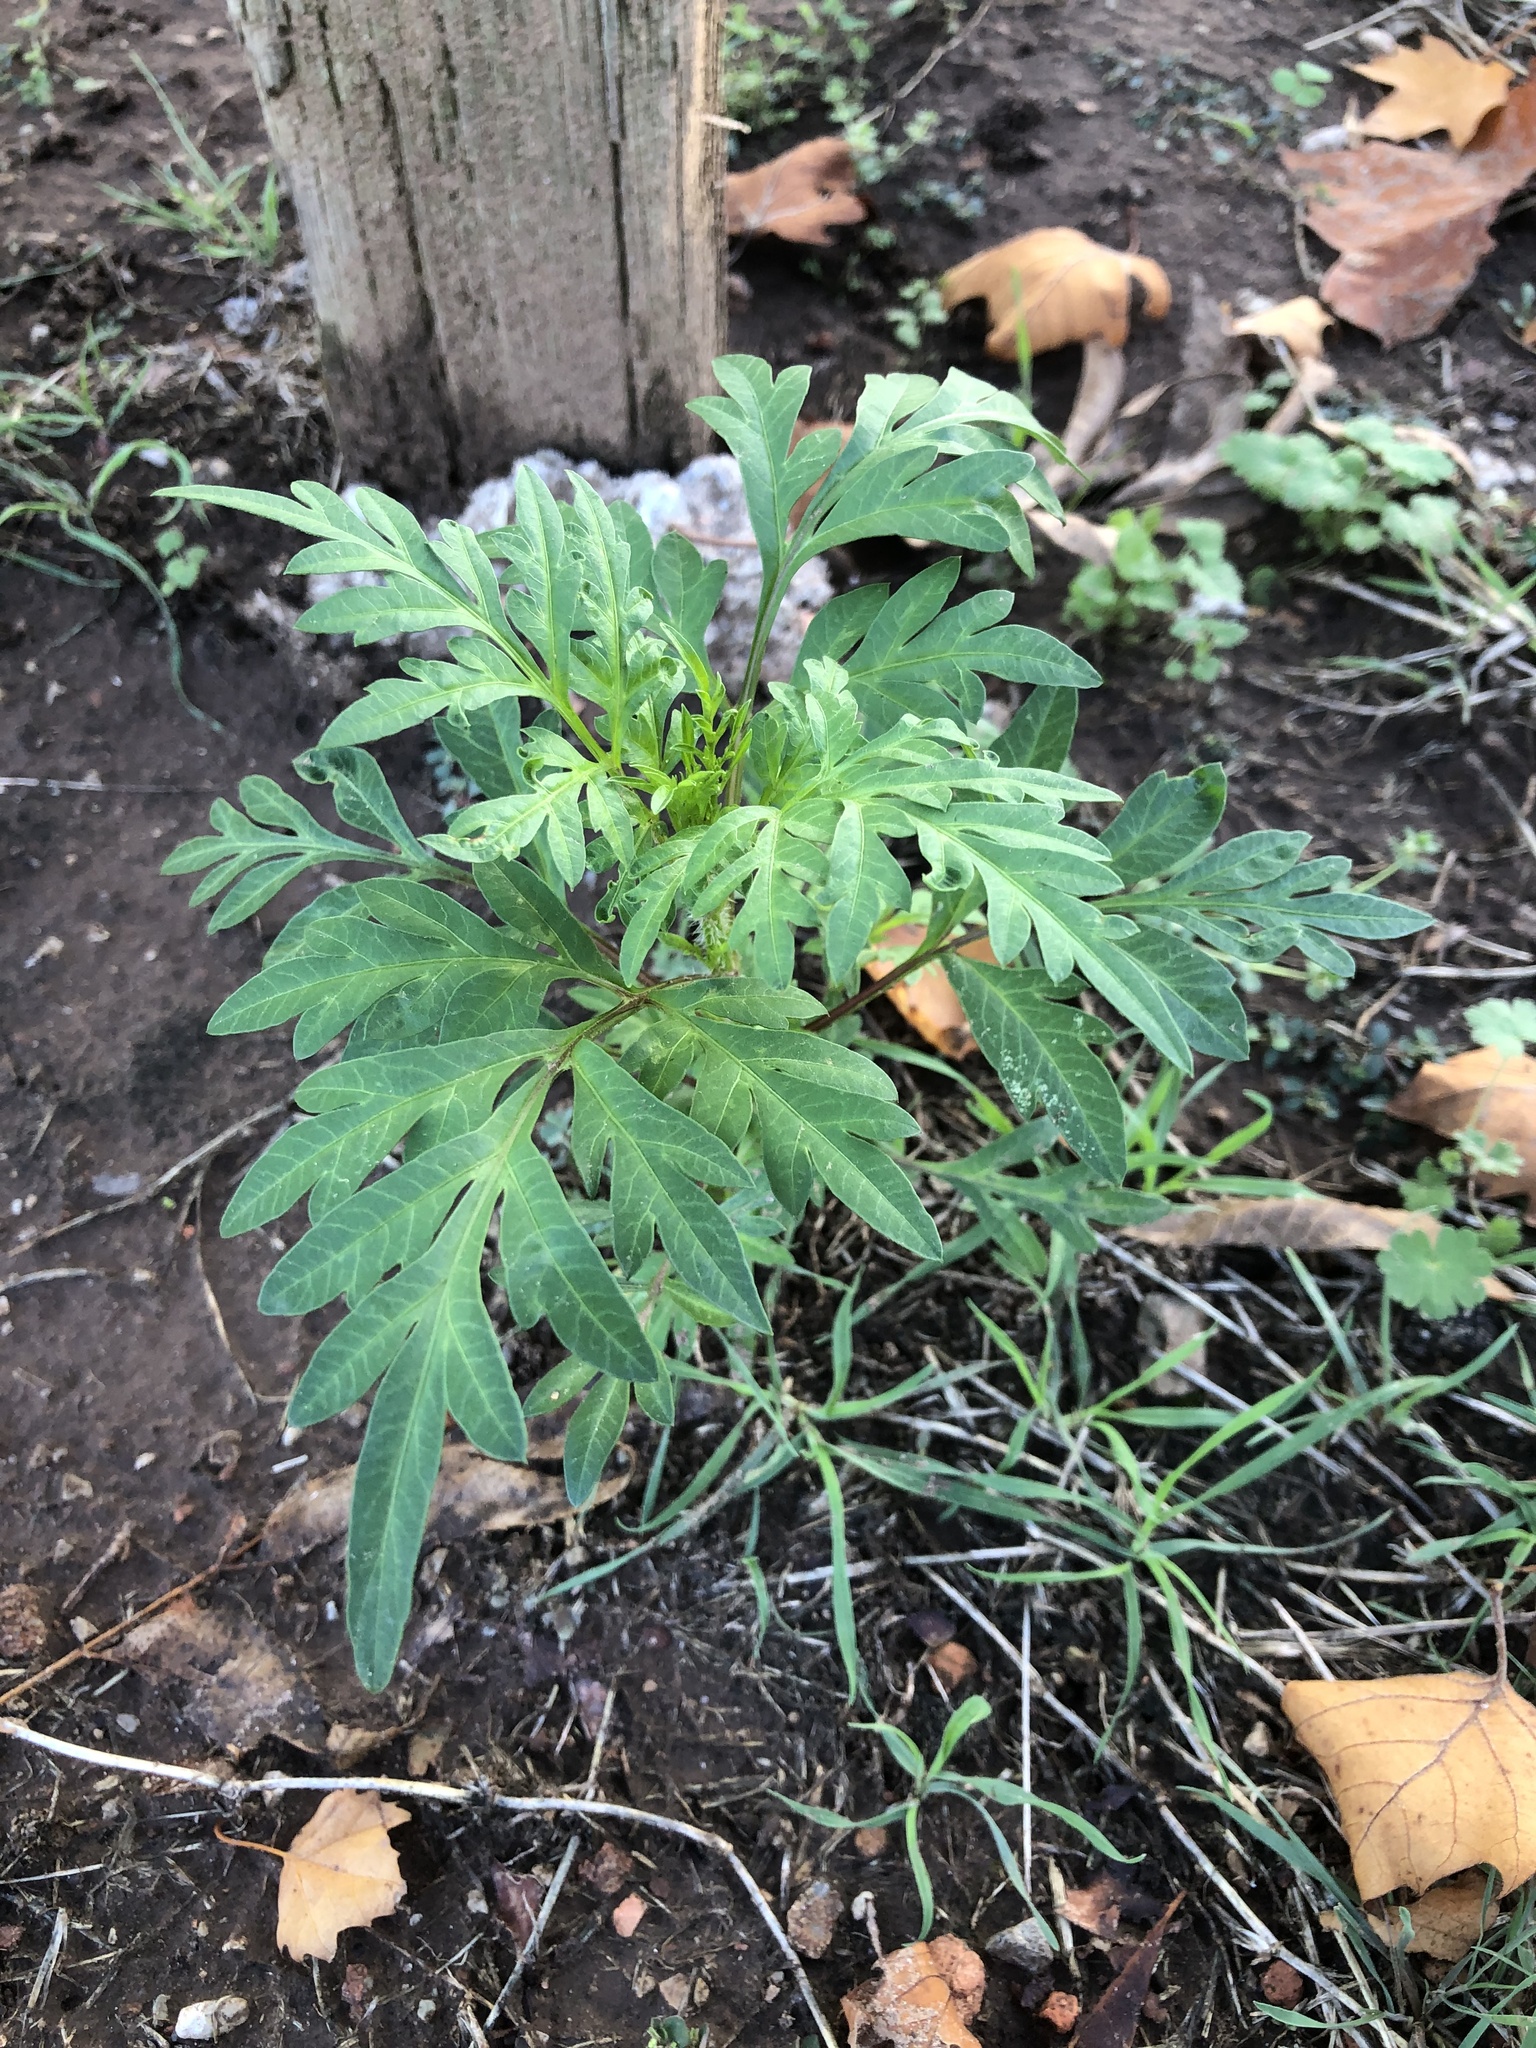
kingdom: Plantae
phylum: Tracheophyta
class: Magnoliopsida
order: Asterales
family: Asteraceae
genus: Ambrosia
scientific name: Ambrosia artemisiifolia
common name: Annual ragweed
